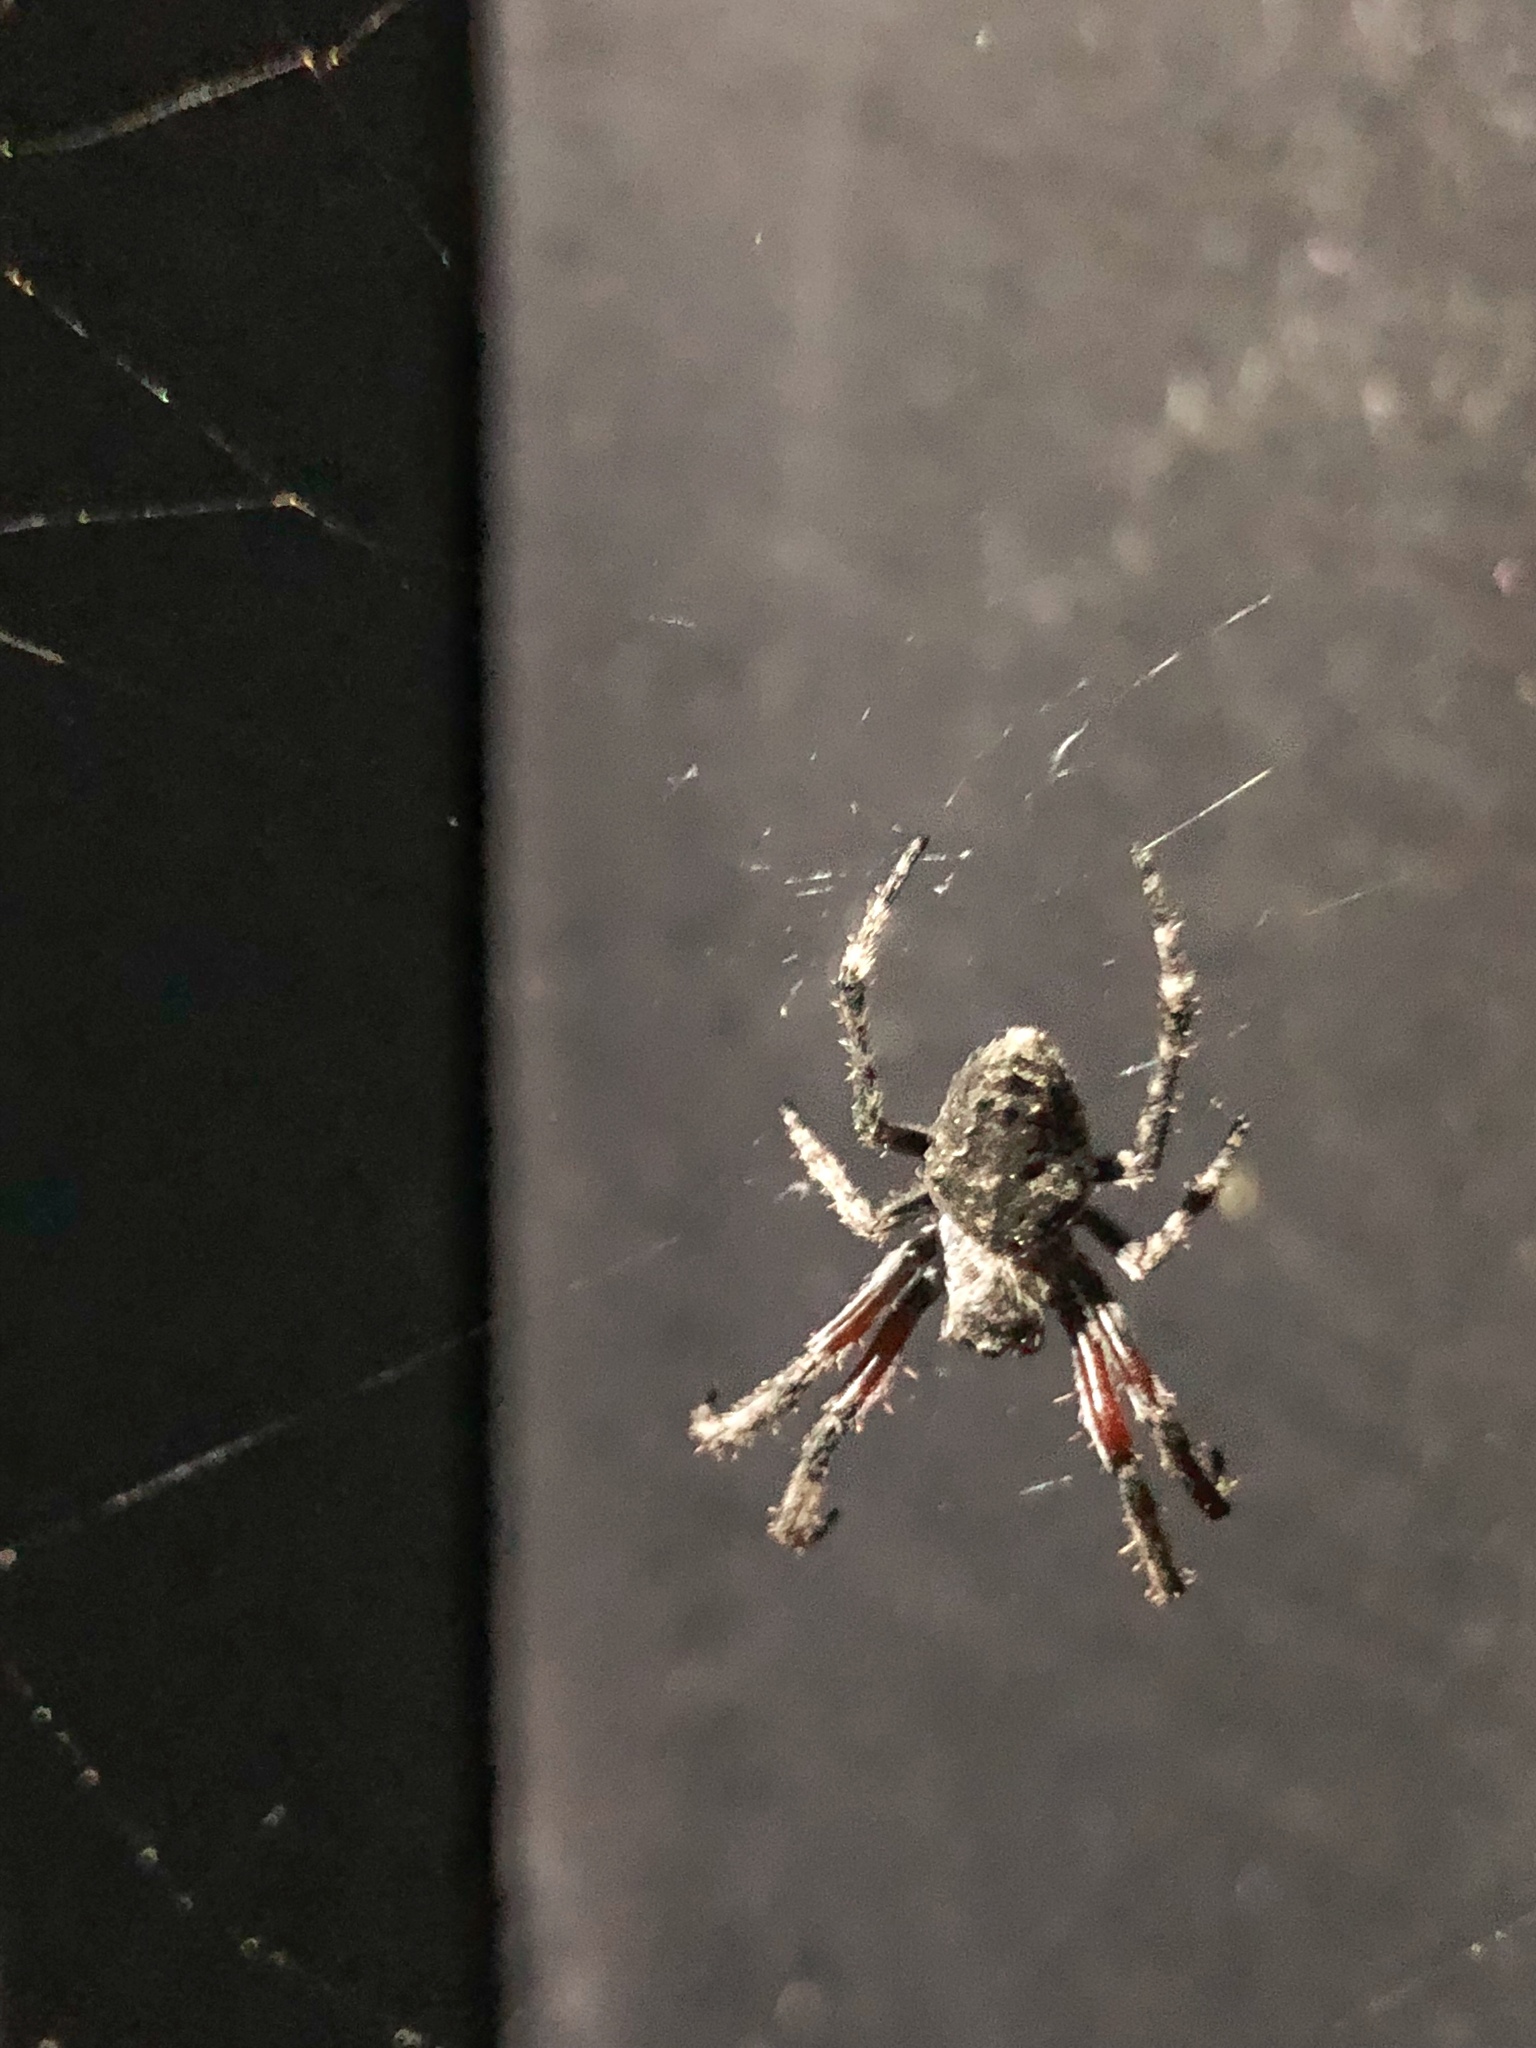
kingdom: Animalia
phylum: Arthropoda
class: Arachnida
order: Araneae
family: Araneidae
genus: Eriophora
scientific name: Eriophora pustulosa
